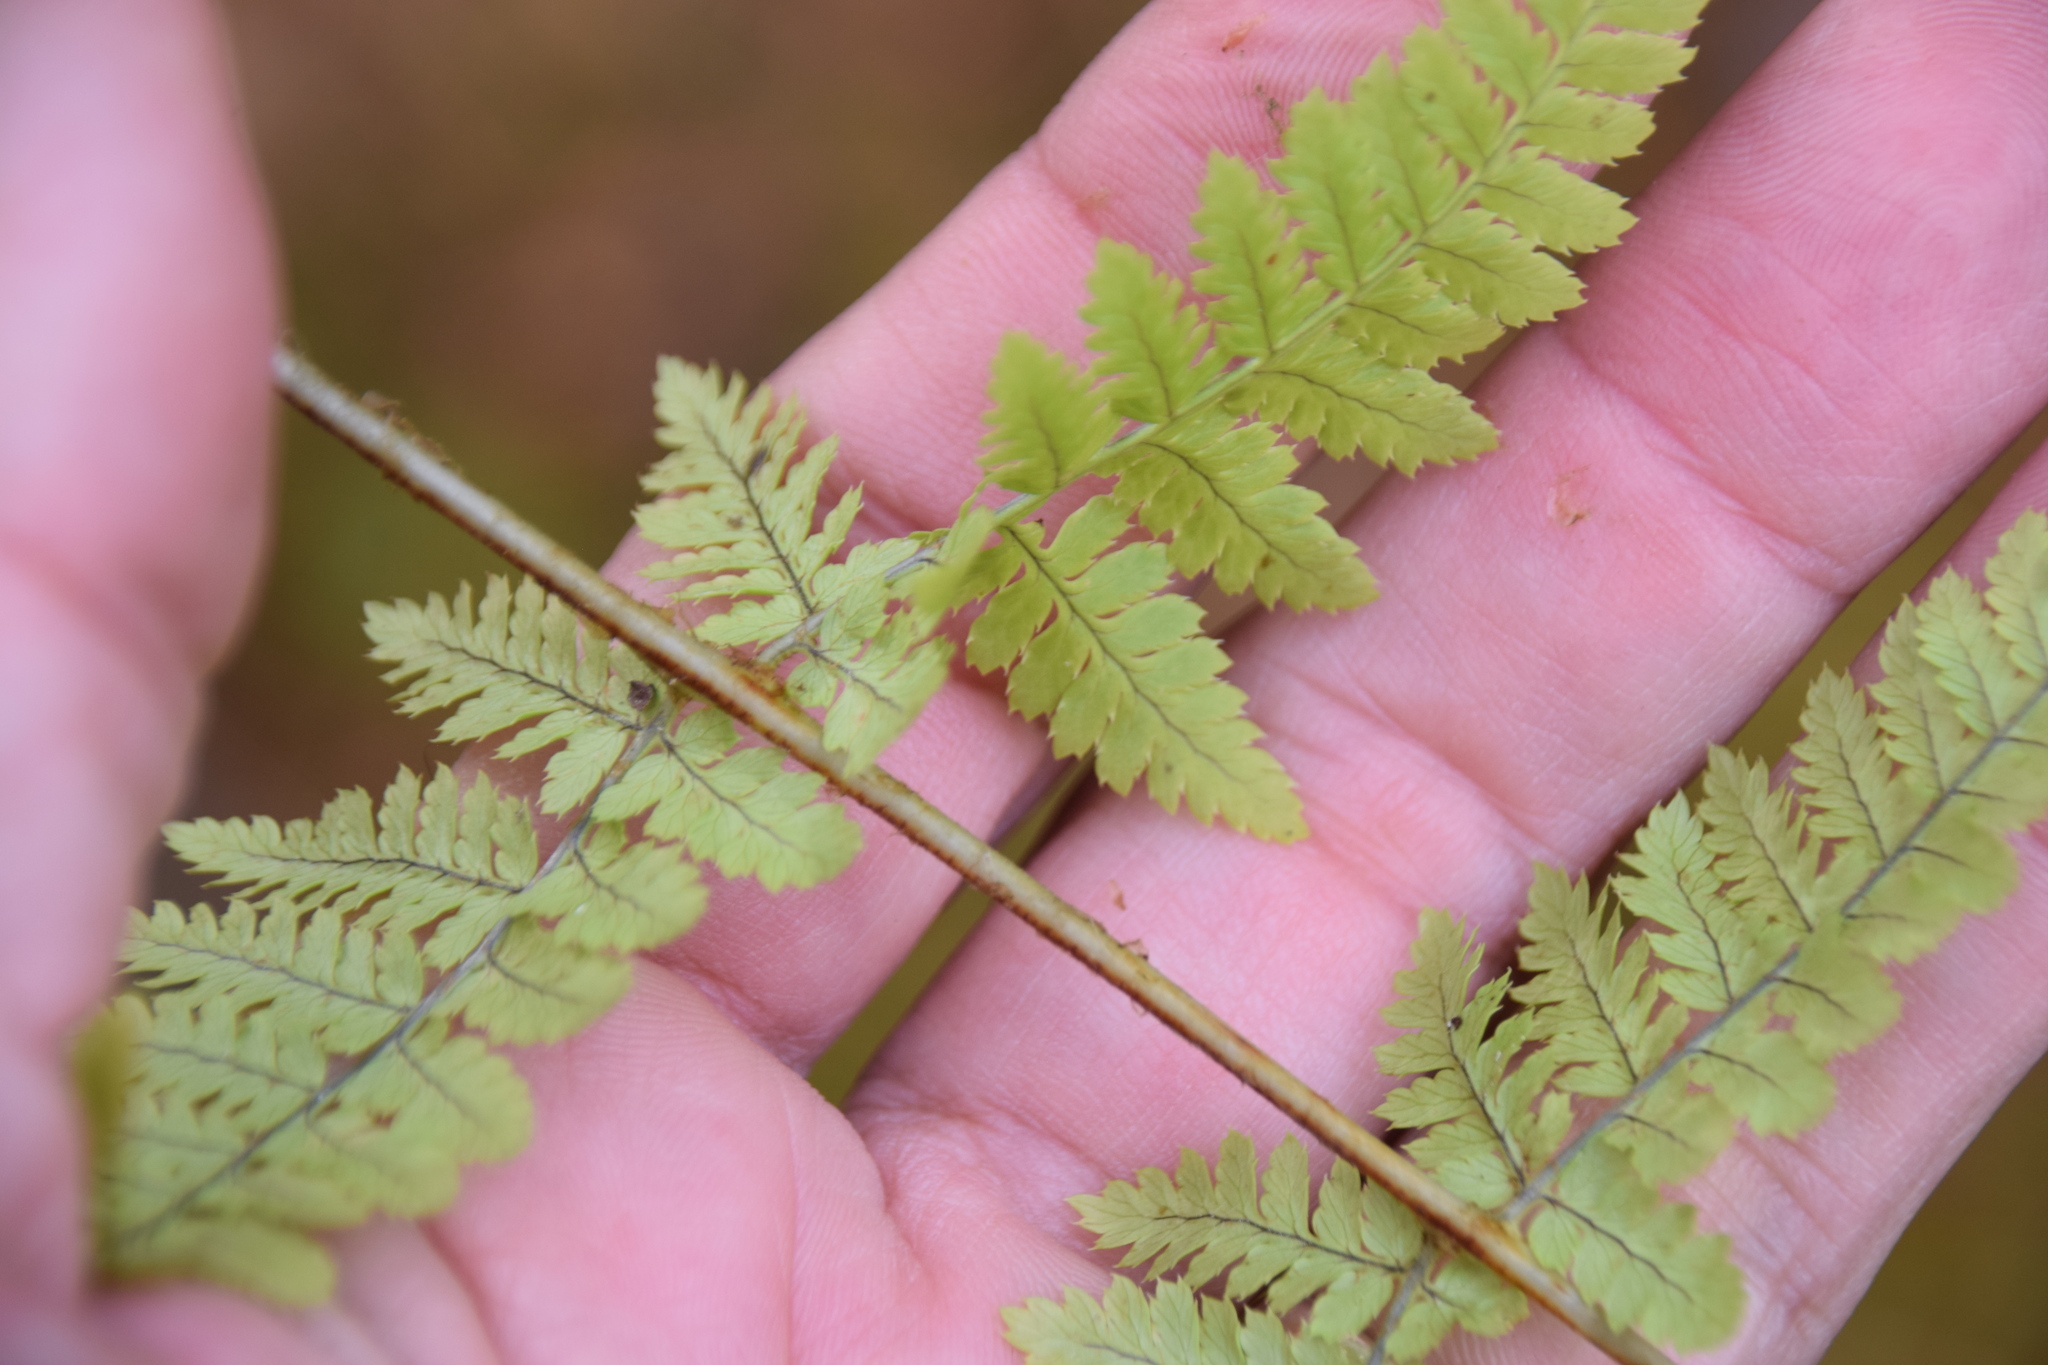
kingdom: Plantae
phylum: Tracheophyta
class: Polypodiopsida
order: Polypodiales
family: Dryopteridaceae
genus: Dryopteris
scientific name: Dryopteris carthusiana
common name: Narrow buckler-fern
